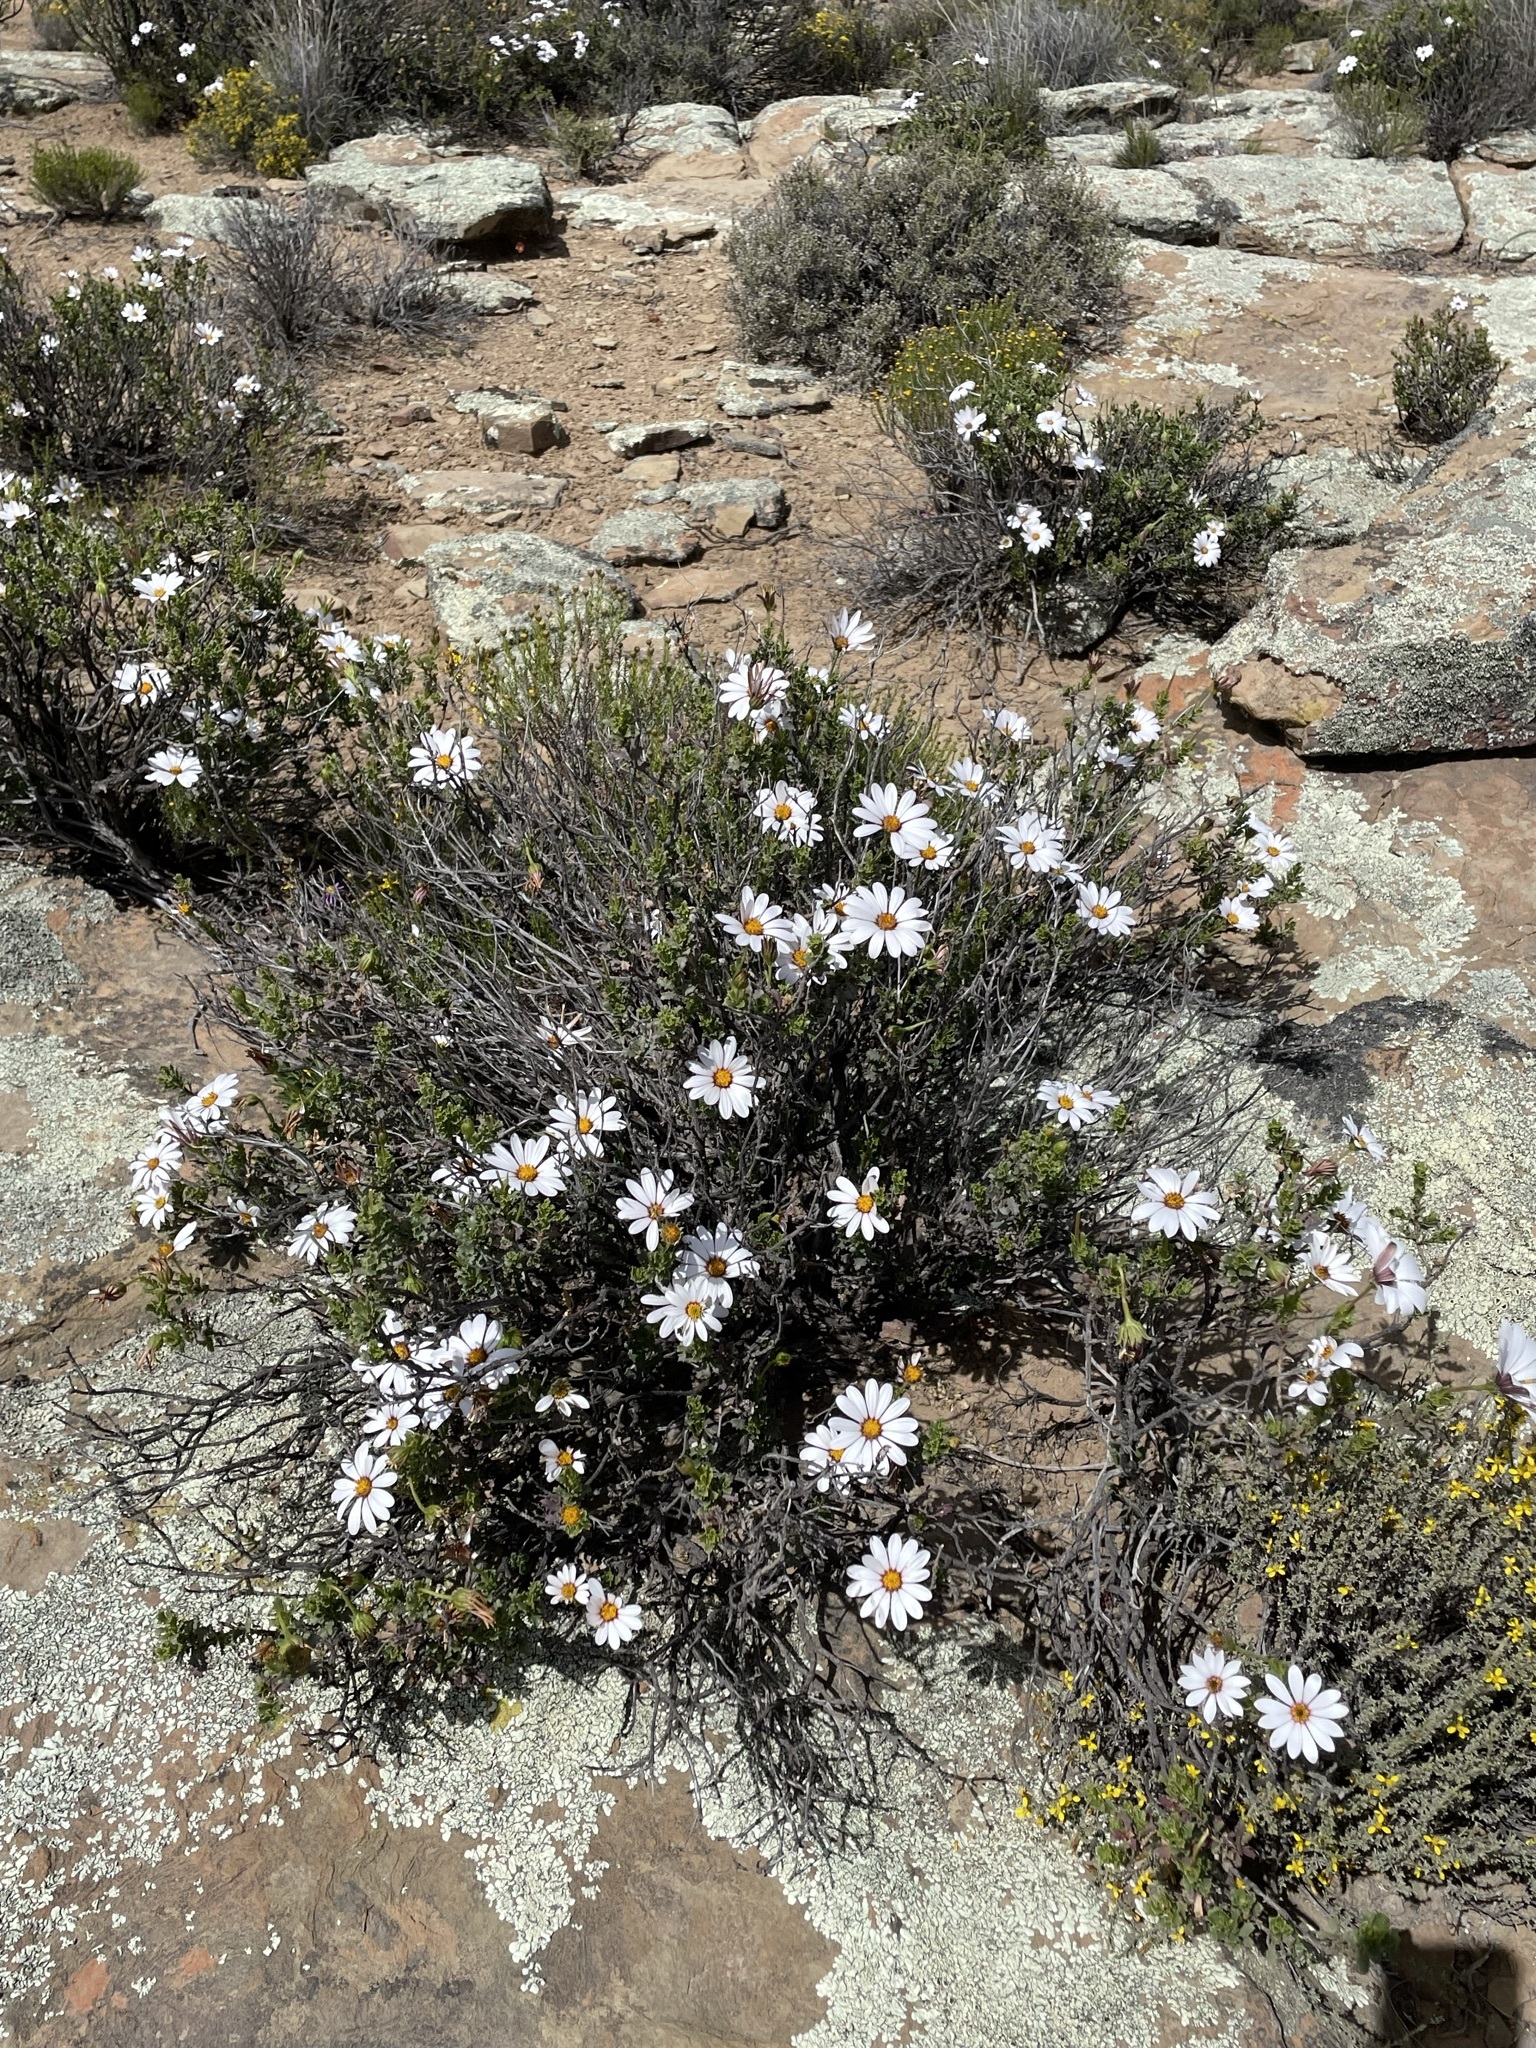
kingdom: Plantae
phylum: Tracheophyta
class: Magnoliopsida
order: Asterales
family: Asteraceae
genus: Dimorphotheca
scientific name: Dimorphotheca cuneata
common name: Daisy
